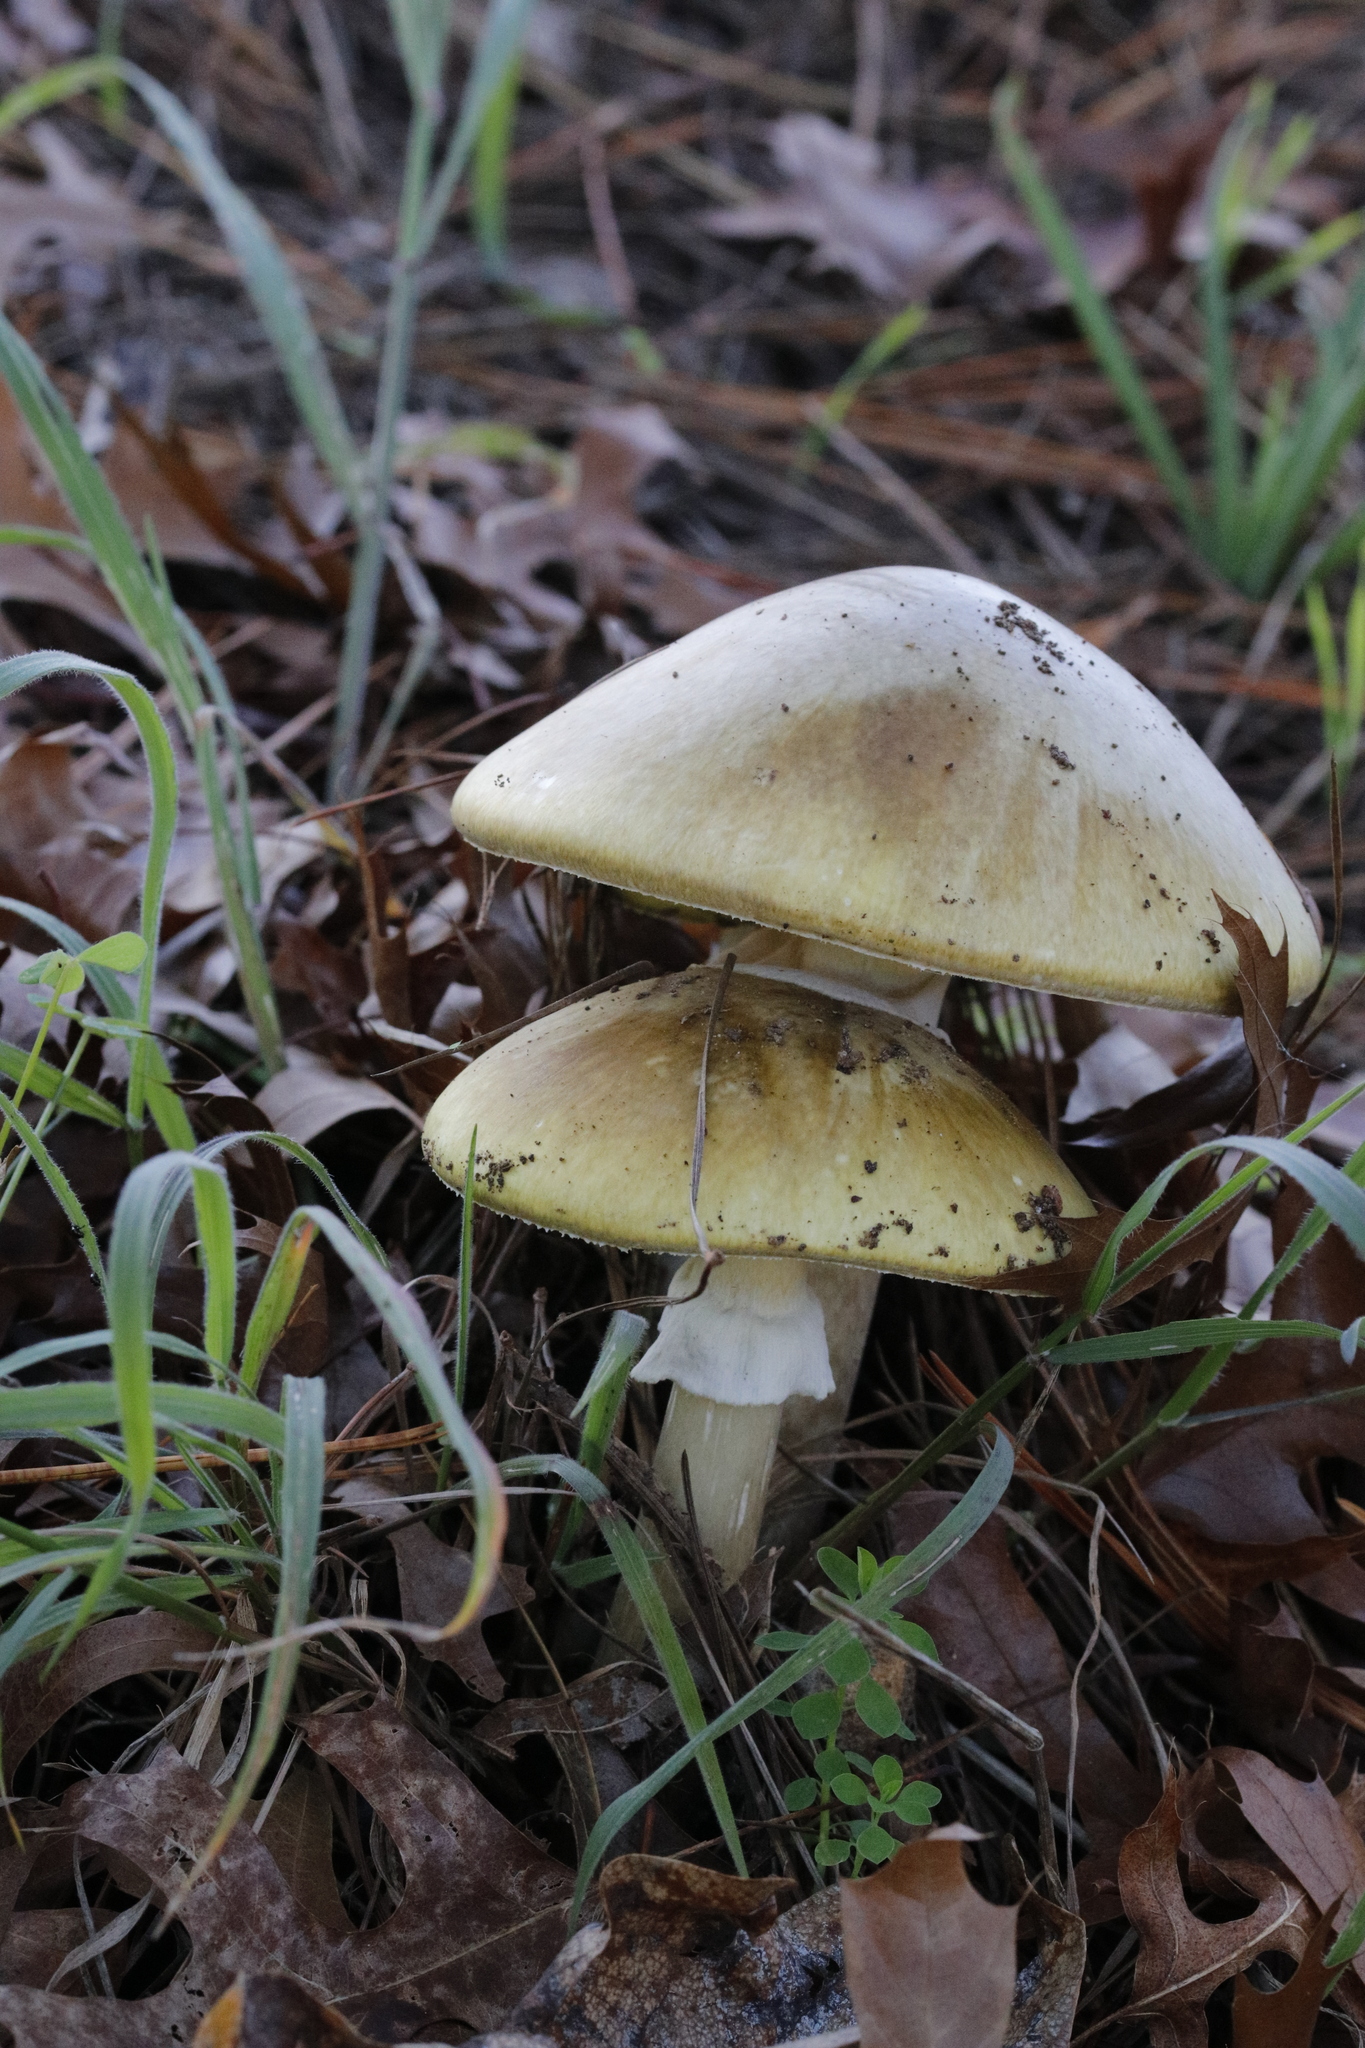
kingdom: Fungi
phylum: Basidiomycota
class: Agaricomycetes
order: Agaricales
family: Amanitaceae
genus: Amanita
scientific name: Amanita phalloides
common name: Death cap
